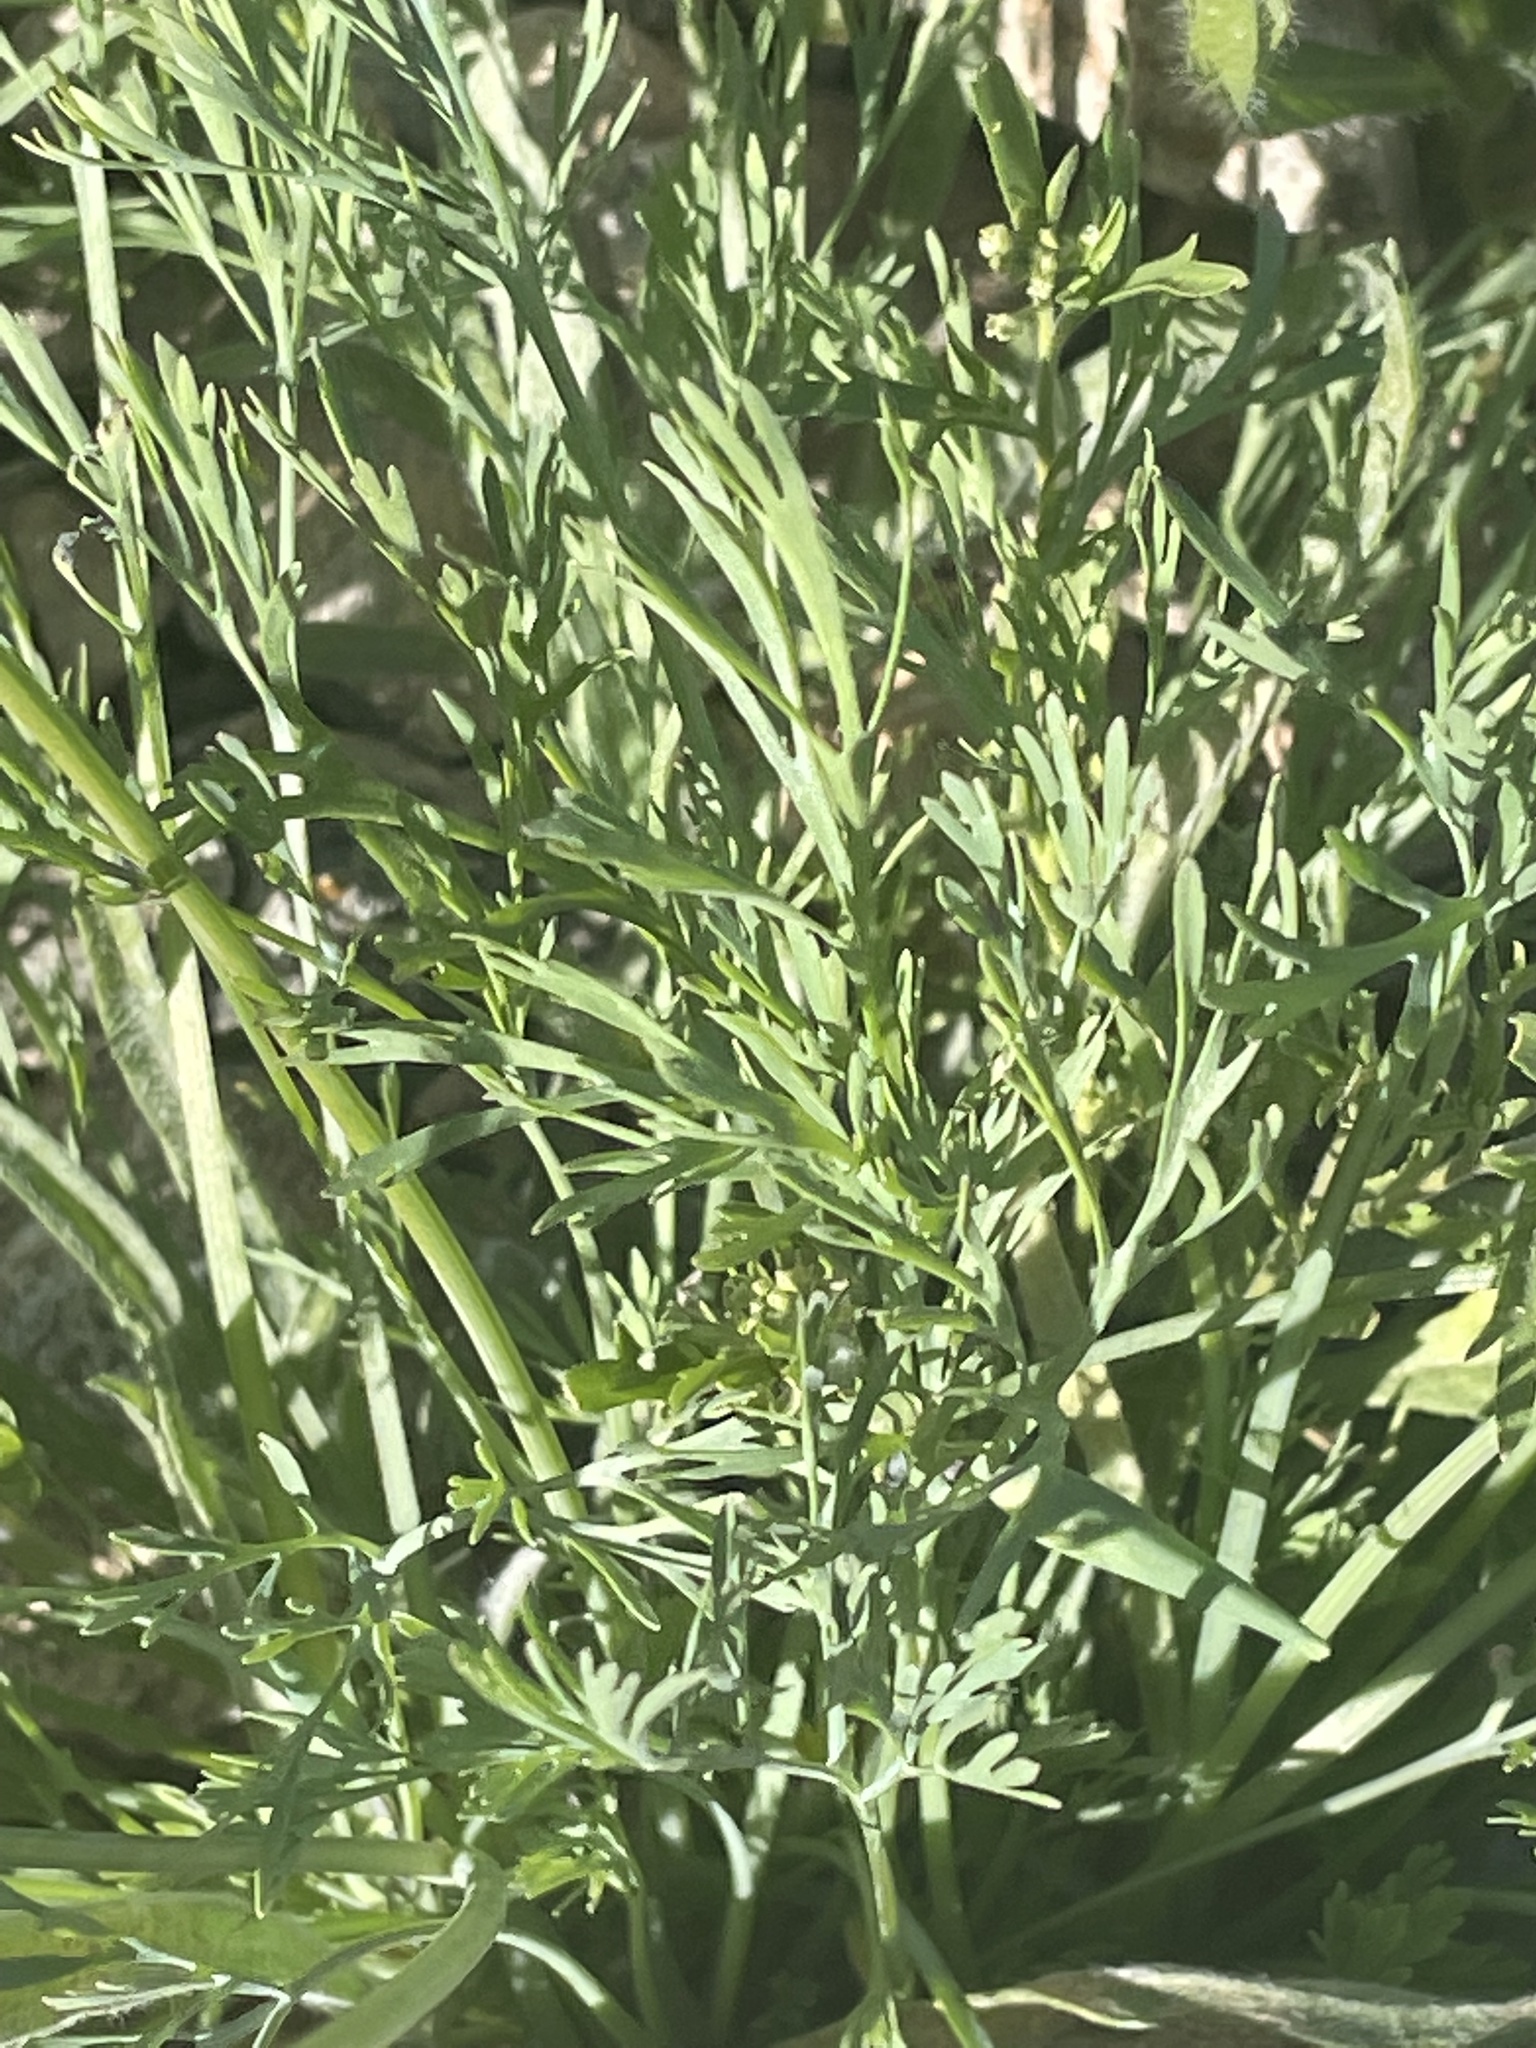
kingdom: Plantae
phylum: Tracheophyta
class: Magnoliopsida
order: Ranunculales
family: Papaveraceae
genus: Eschscholzia
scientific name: Eschscholzia californica
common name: California poppy
